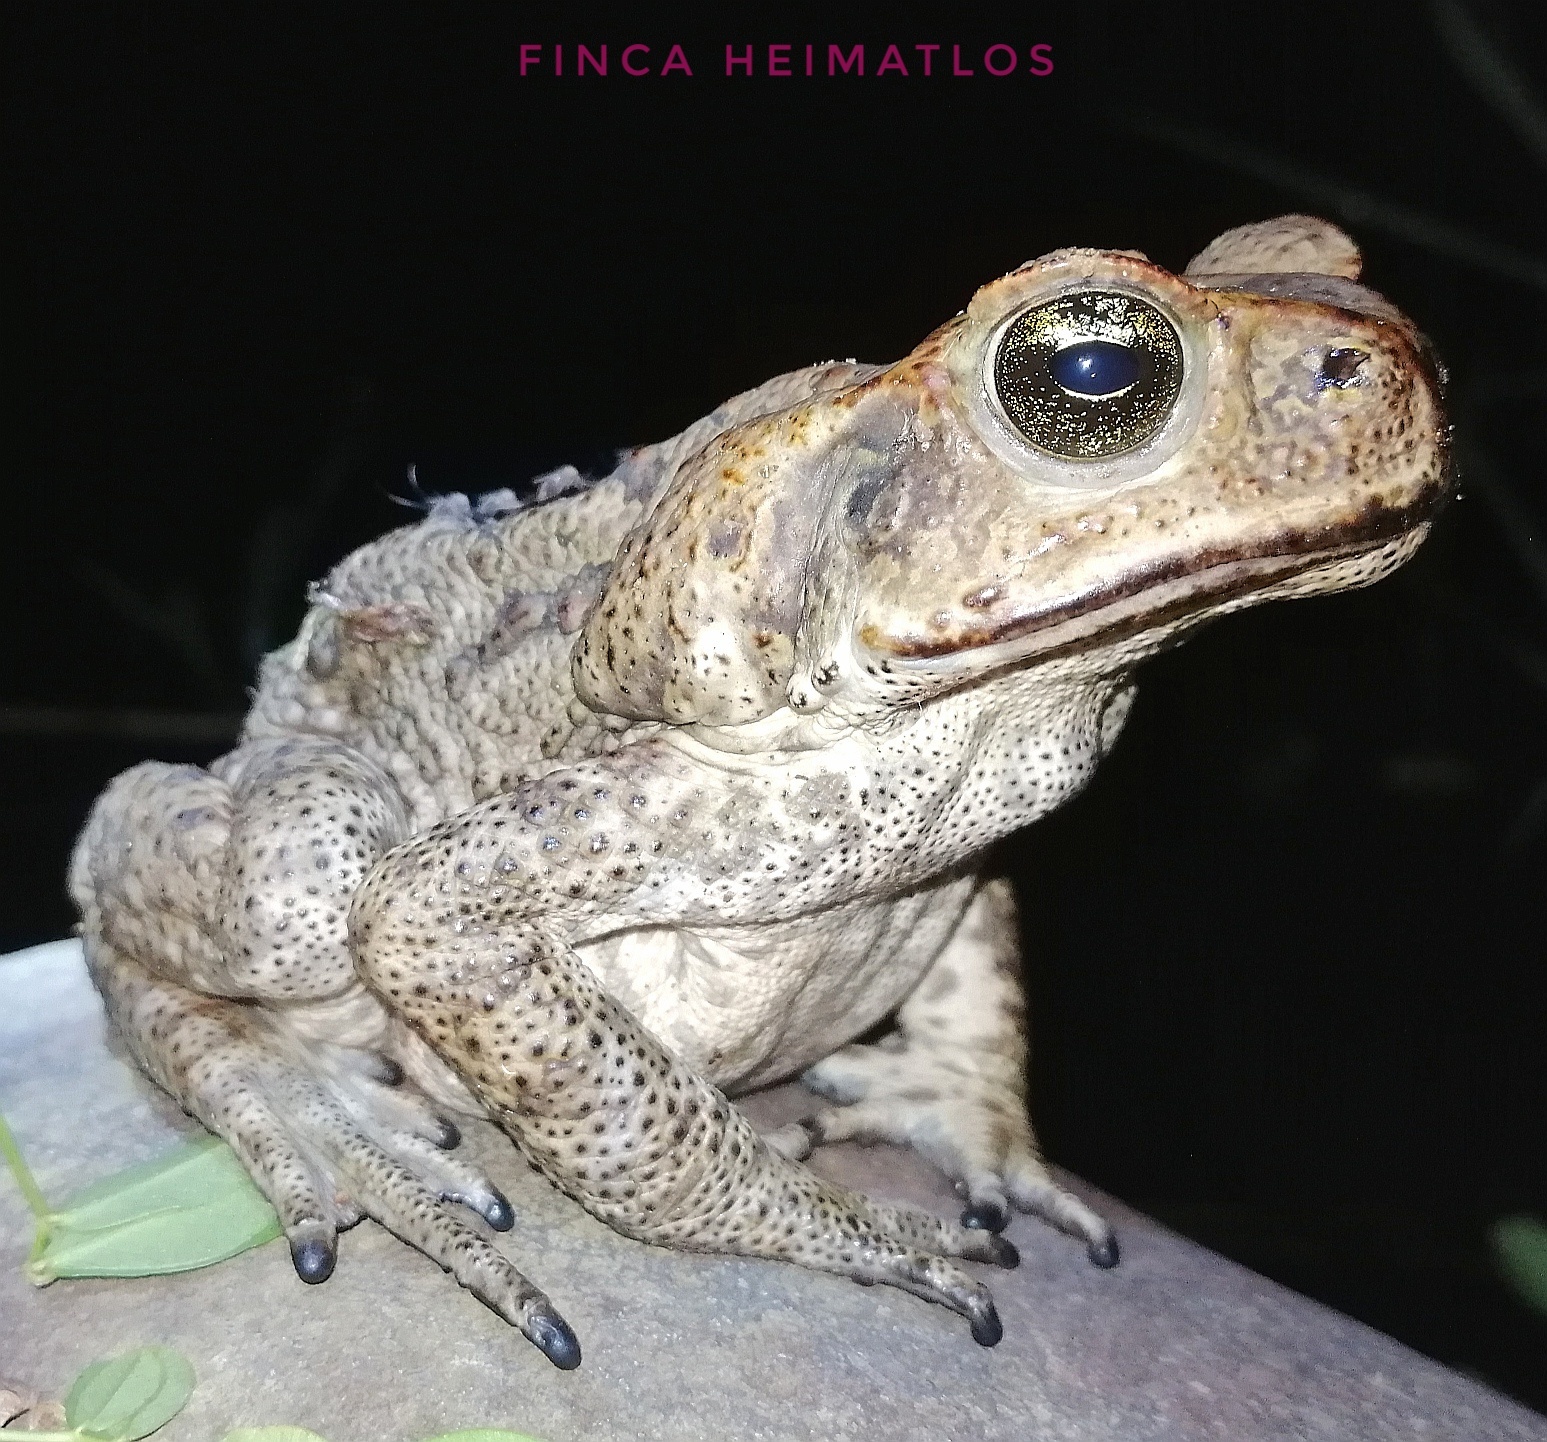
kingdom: Animalia
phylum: Chordata
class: Amphibia
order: Anura
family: Bufonidae
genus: Rhinella
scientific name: Rhinella marina
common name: Cane toad
